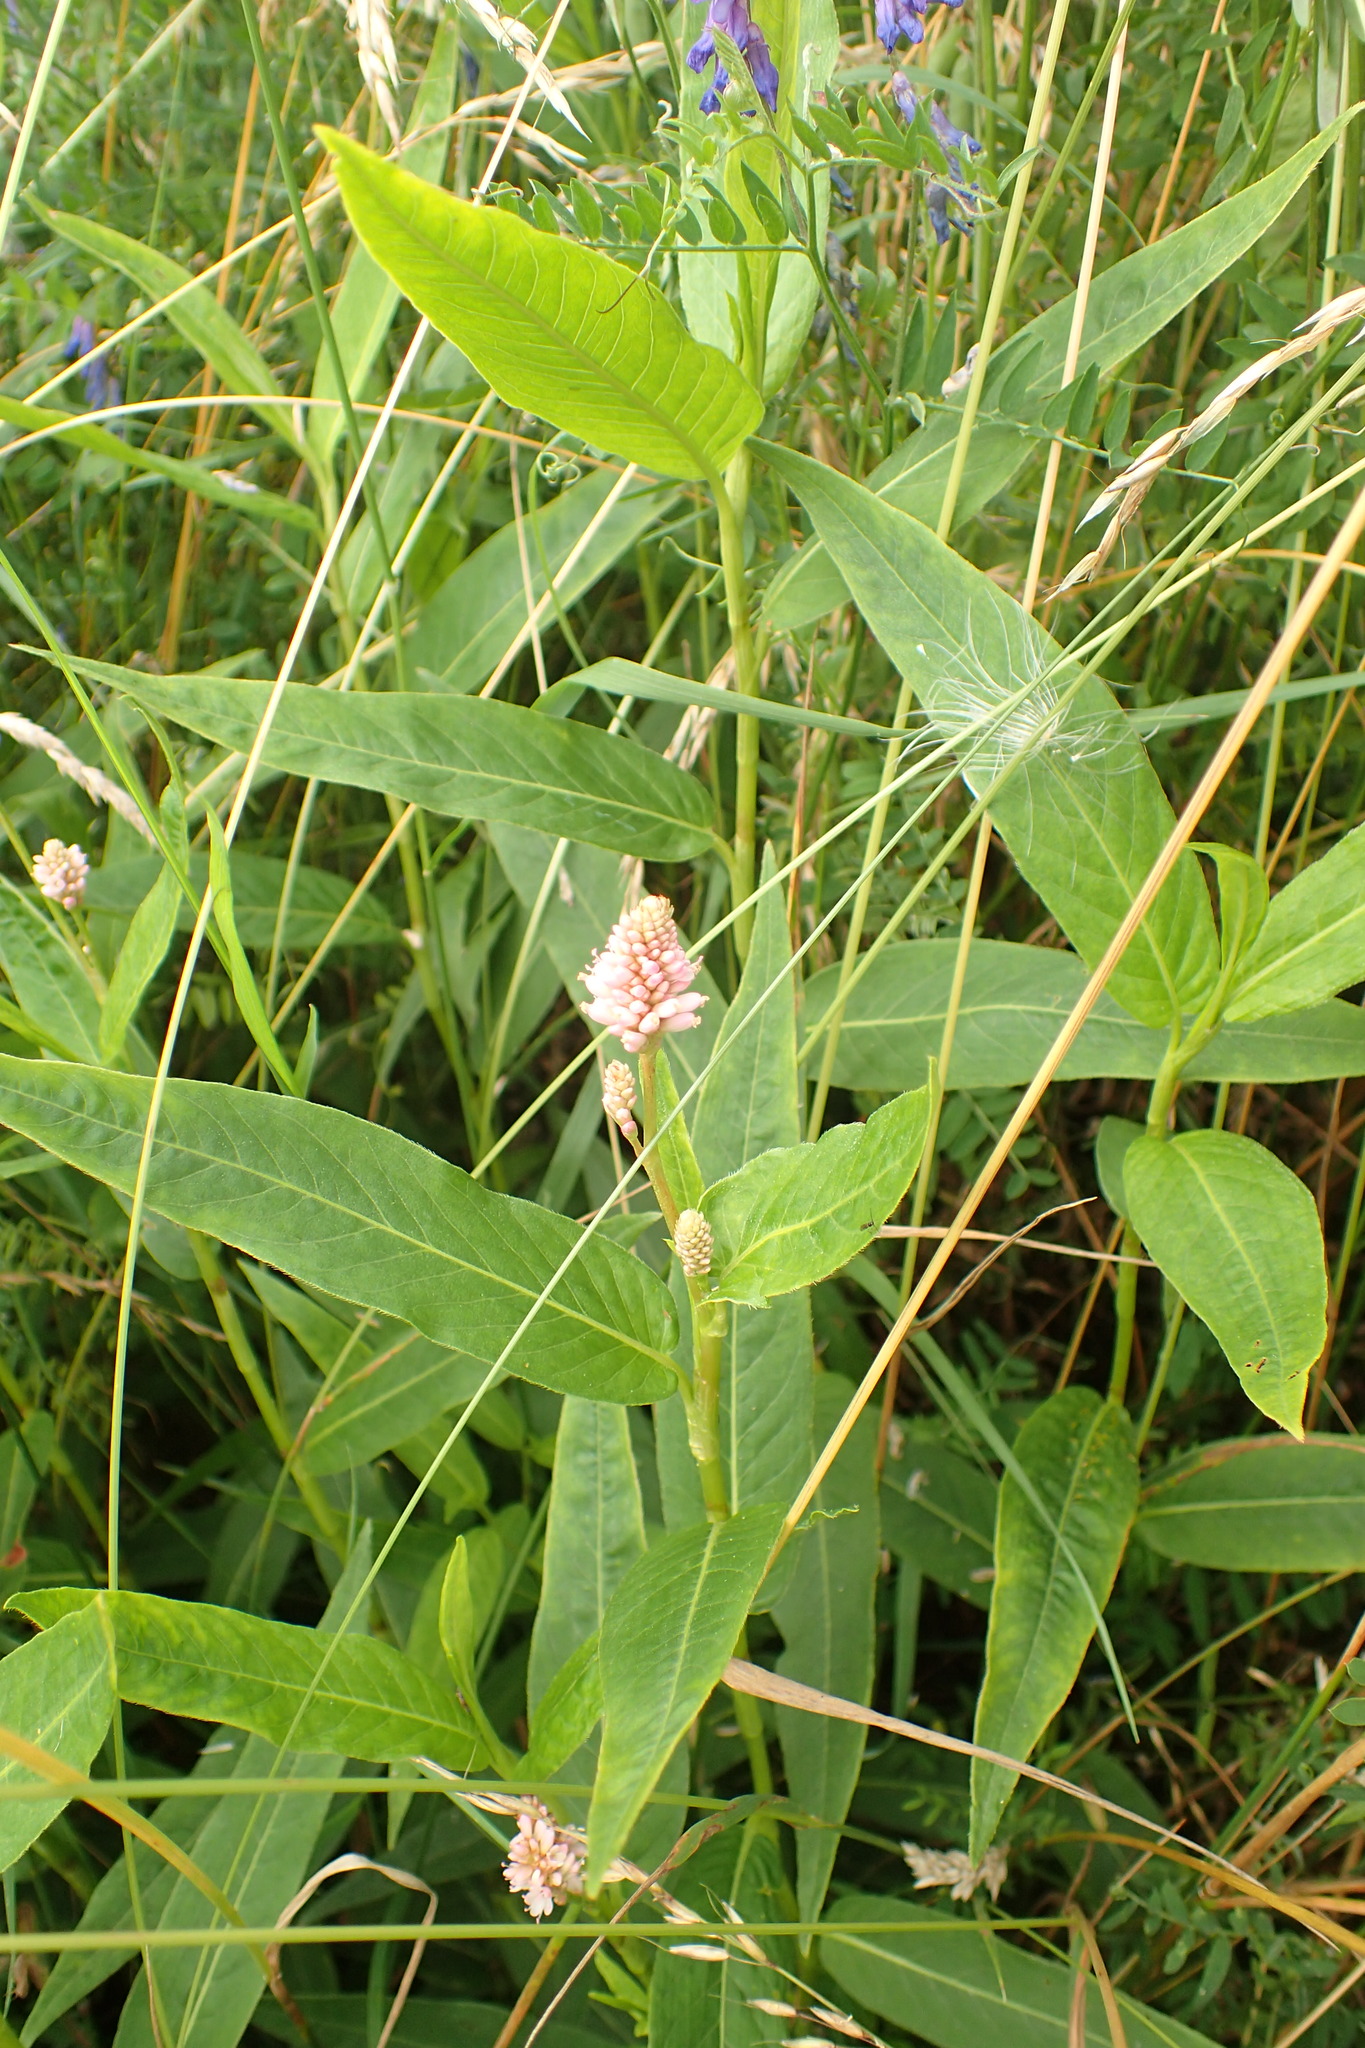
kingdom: Plantae
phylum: Tracheophyta
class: Magnoliopsida
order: Caryophyllales
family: Polygonaceae
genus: Persicaria
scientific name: Persicaria amphibia
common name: Amphibious bistort
